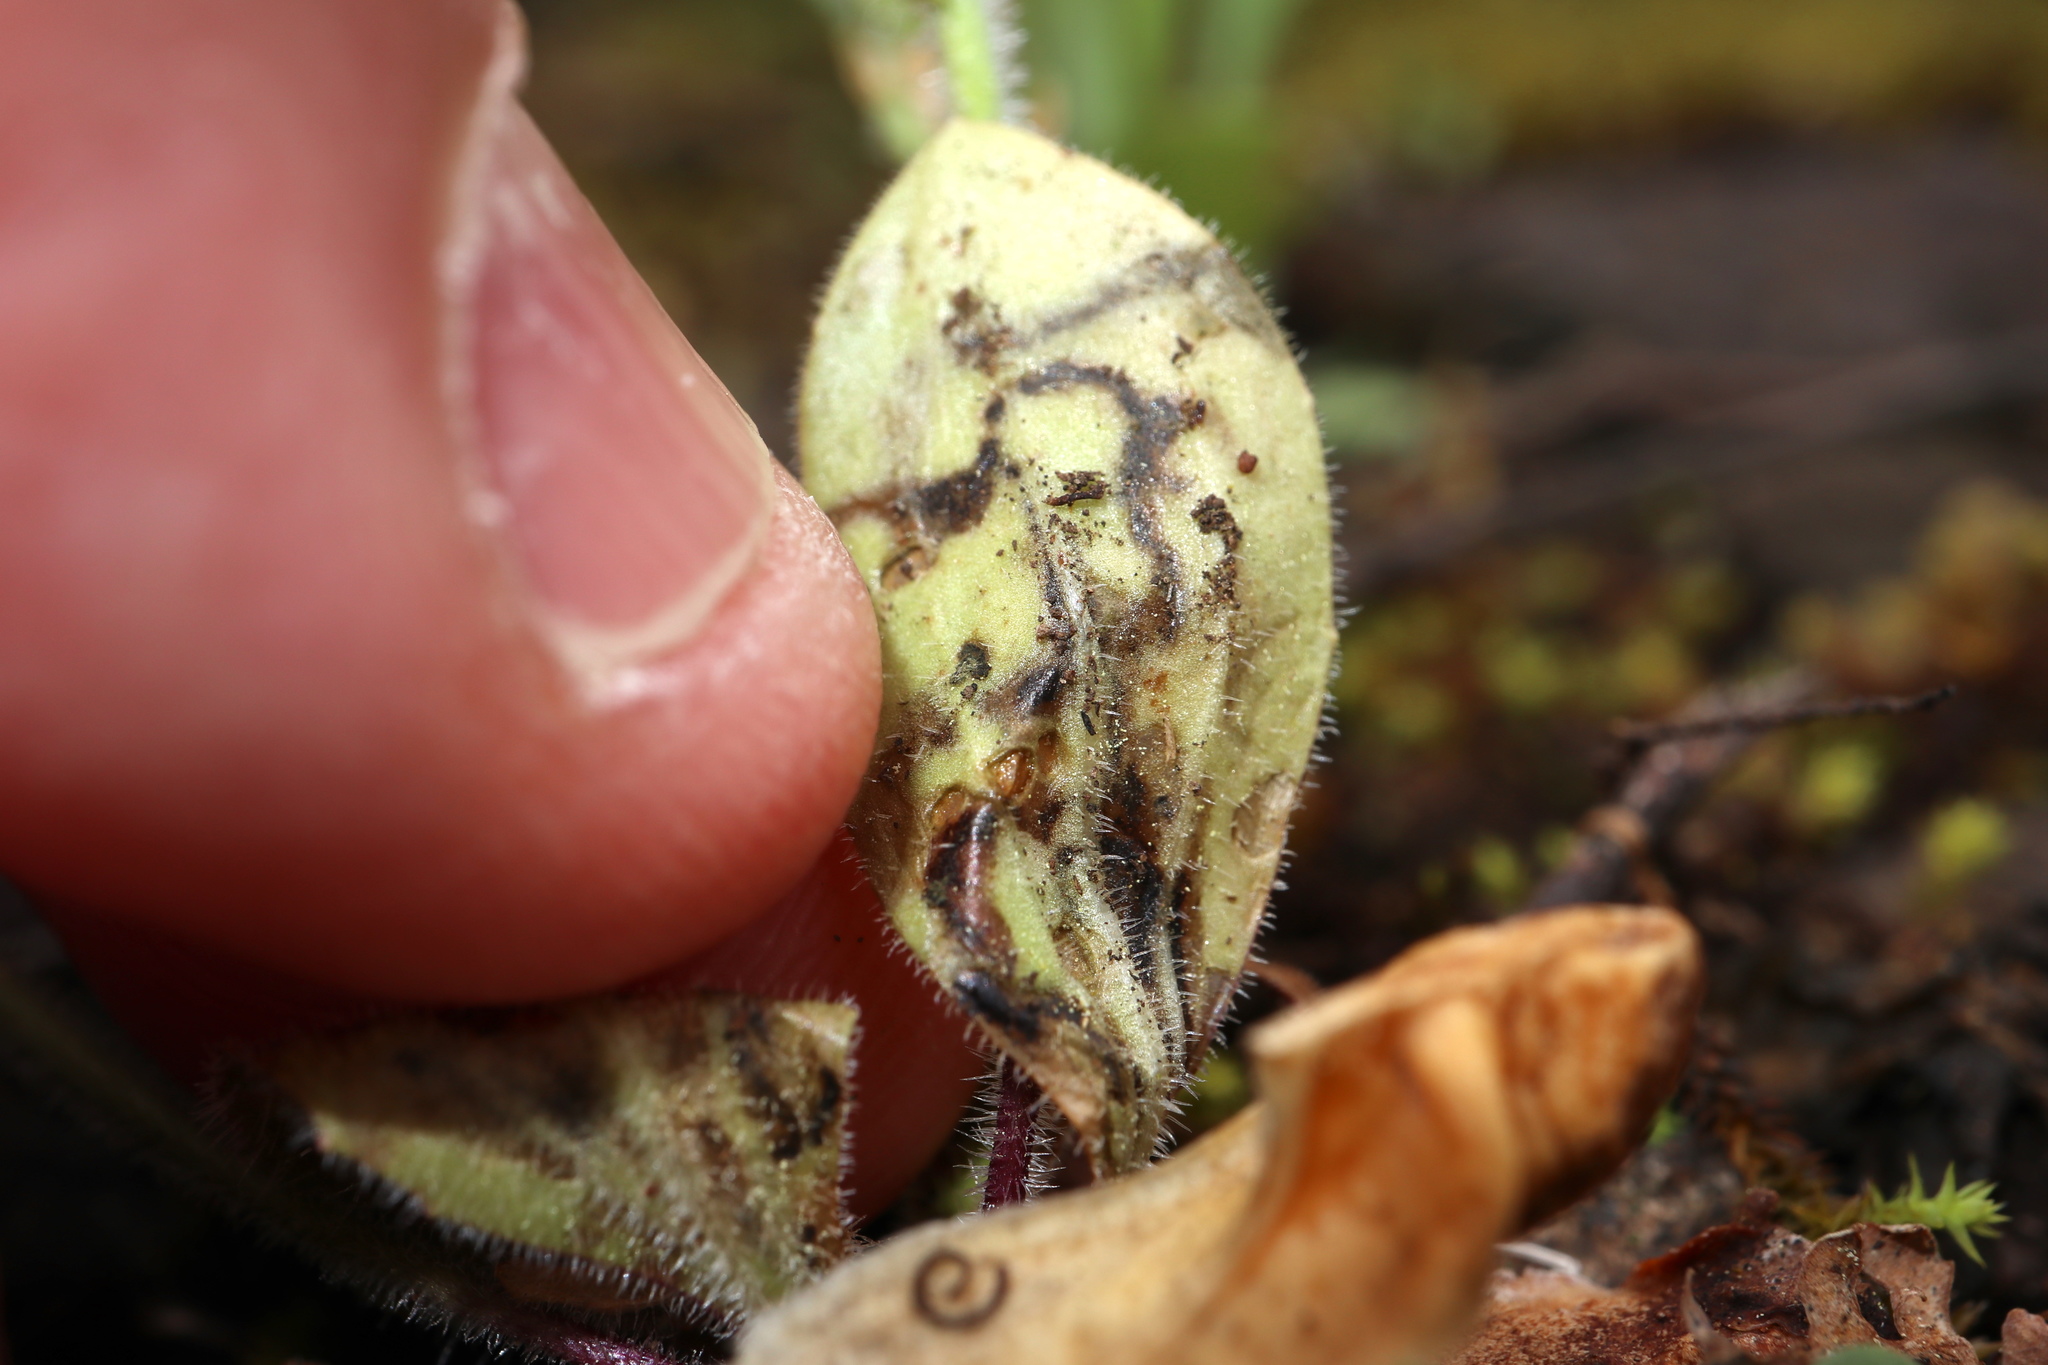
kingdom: Animalia
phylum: Arthropoda
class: Insecta
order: Coleoptera
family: Chrysomelidae
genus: Dibolia
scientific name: Dibolia borealis
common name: Northern plantain flea beetle
